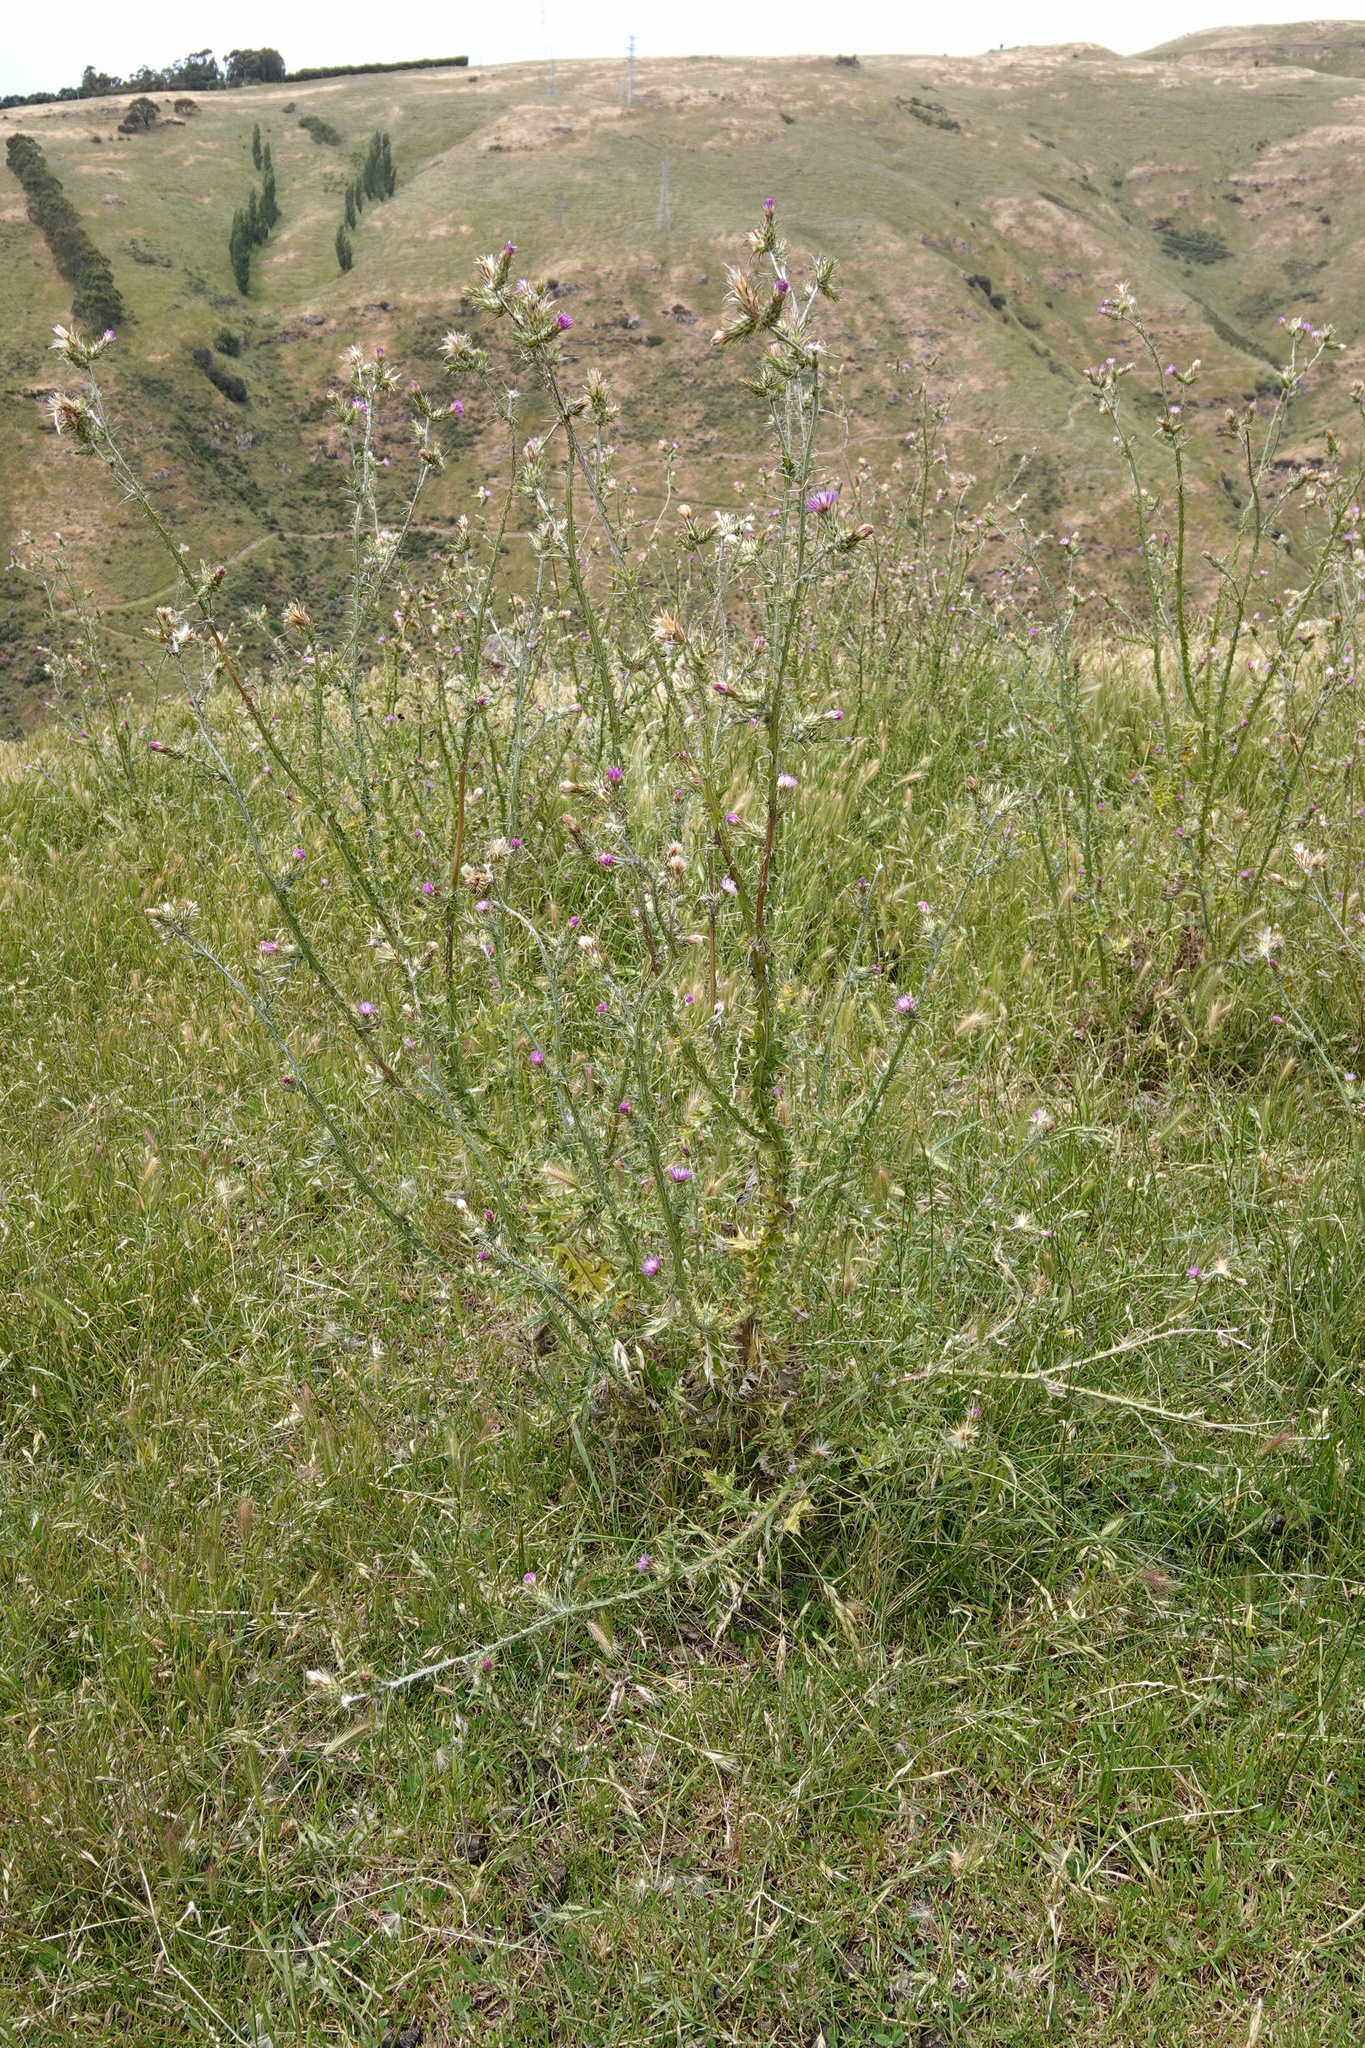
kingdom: Plantae
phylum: Tracheophyta
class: Magnoliopsida
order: Asterales
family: Asteraceae
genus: Carduus
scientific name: Carduus pycnocephalus
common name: Plymouth thistle
